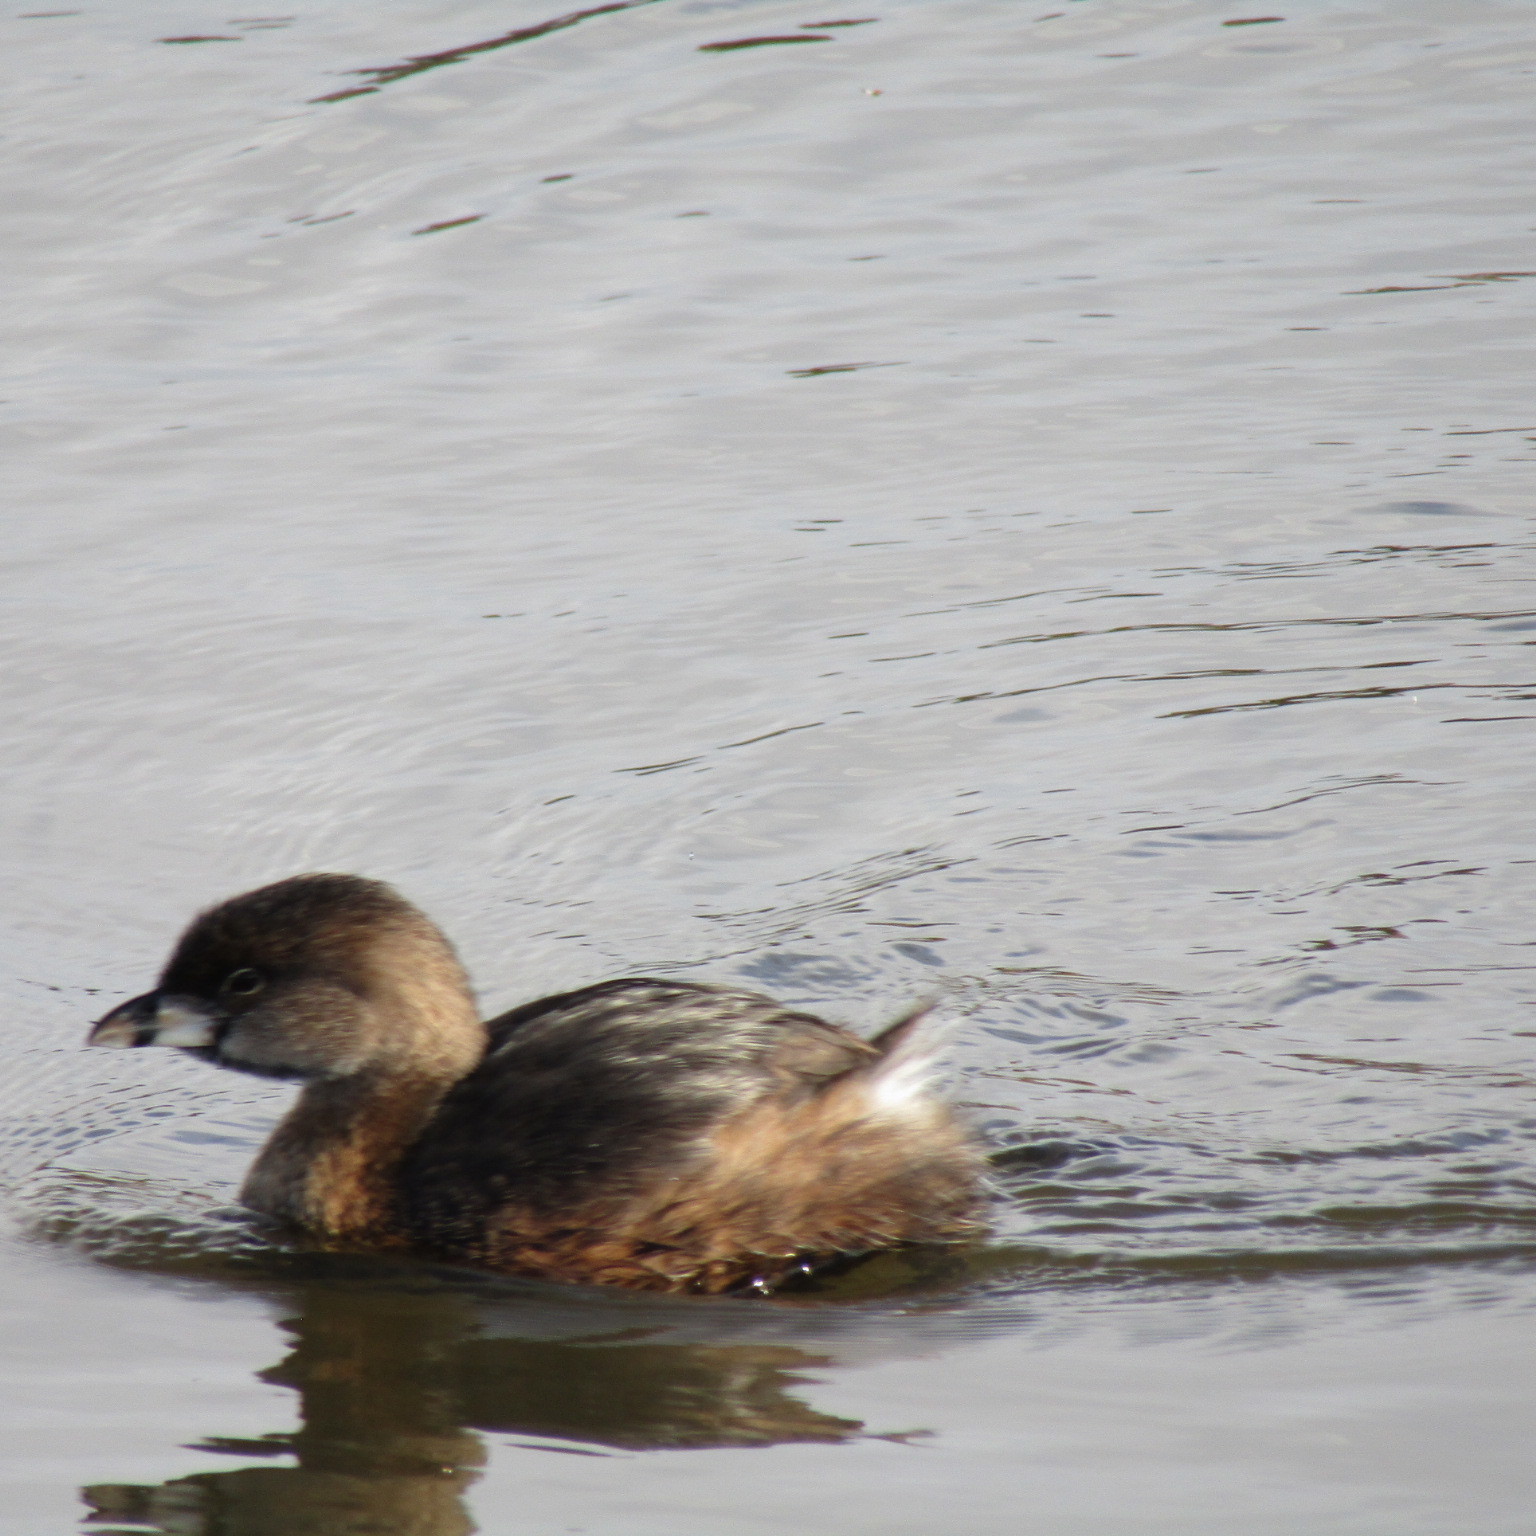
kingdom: Animalia
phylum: Chordata
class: Aves
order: Podicipediformes
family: Podicipedidae
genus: Podilymbus
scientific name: Podilymbus podiceps
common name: Pied-billed grebe
